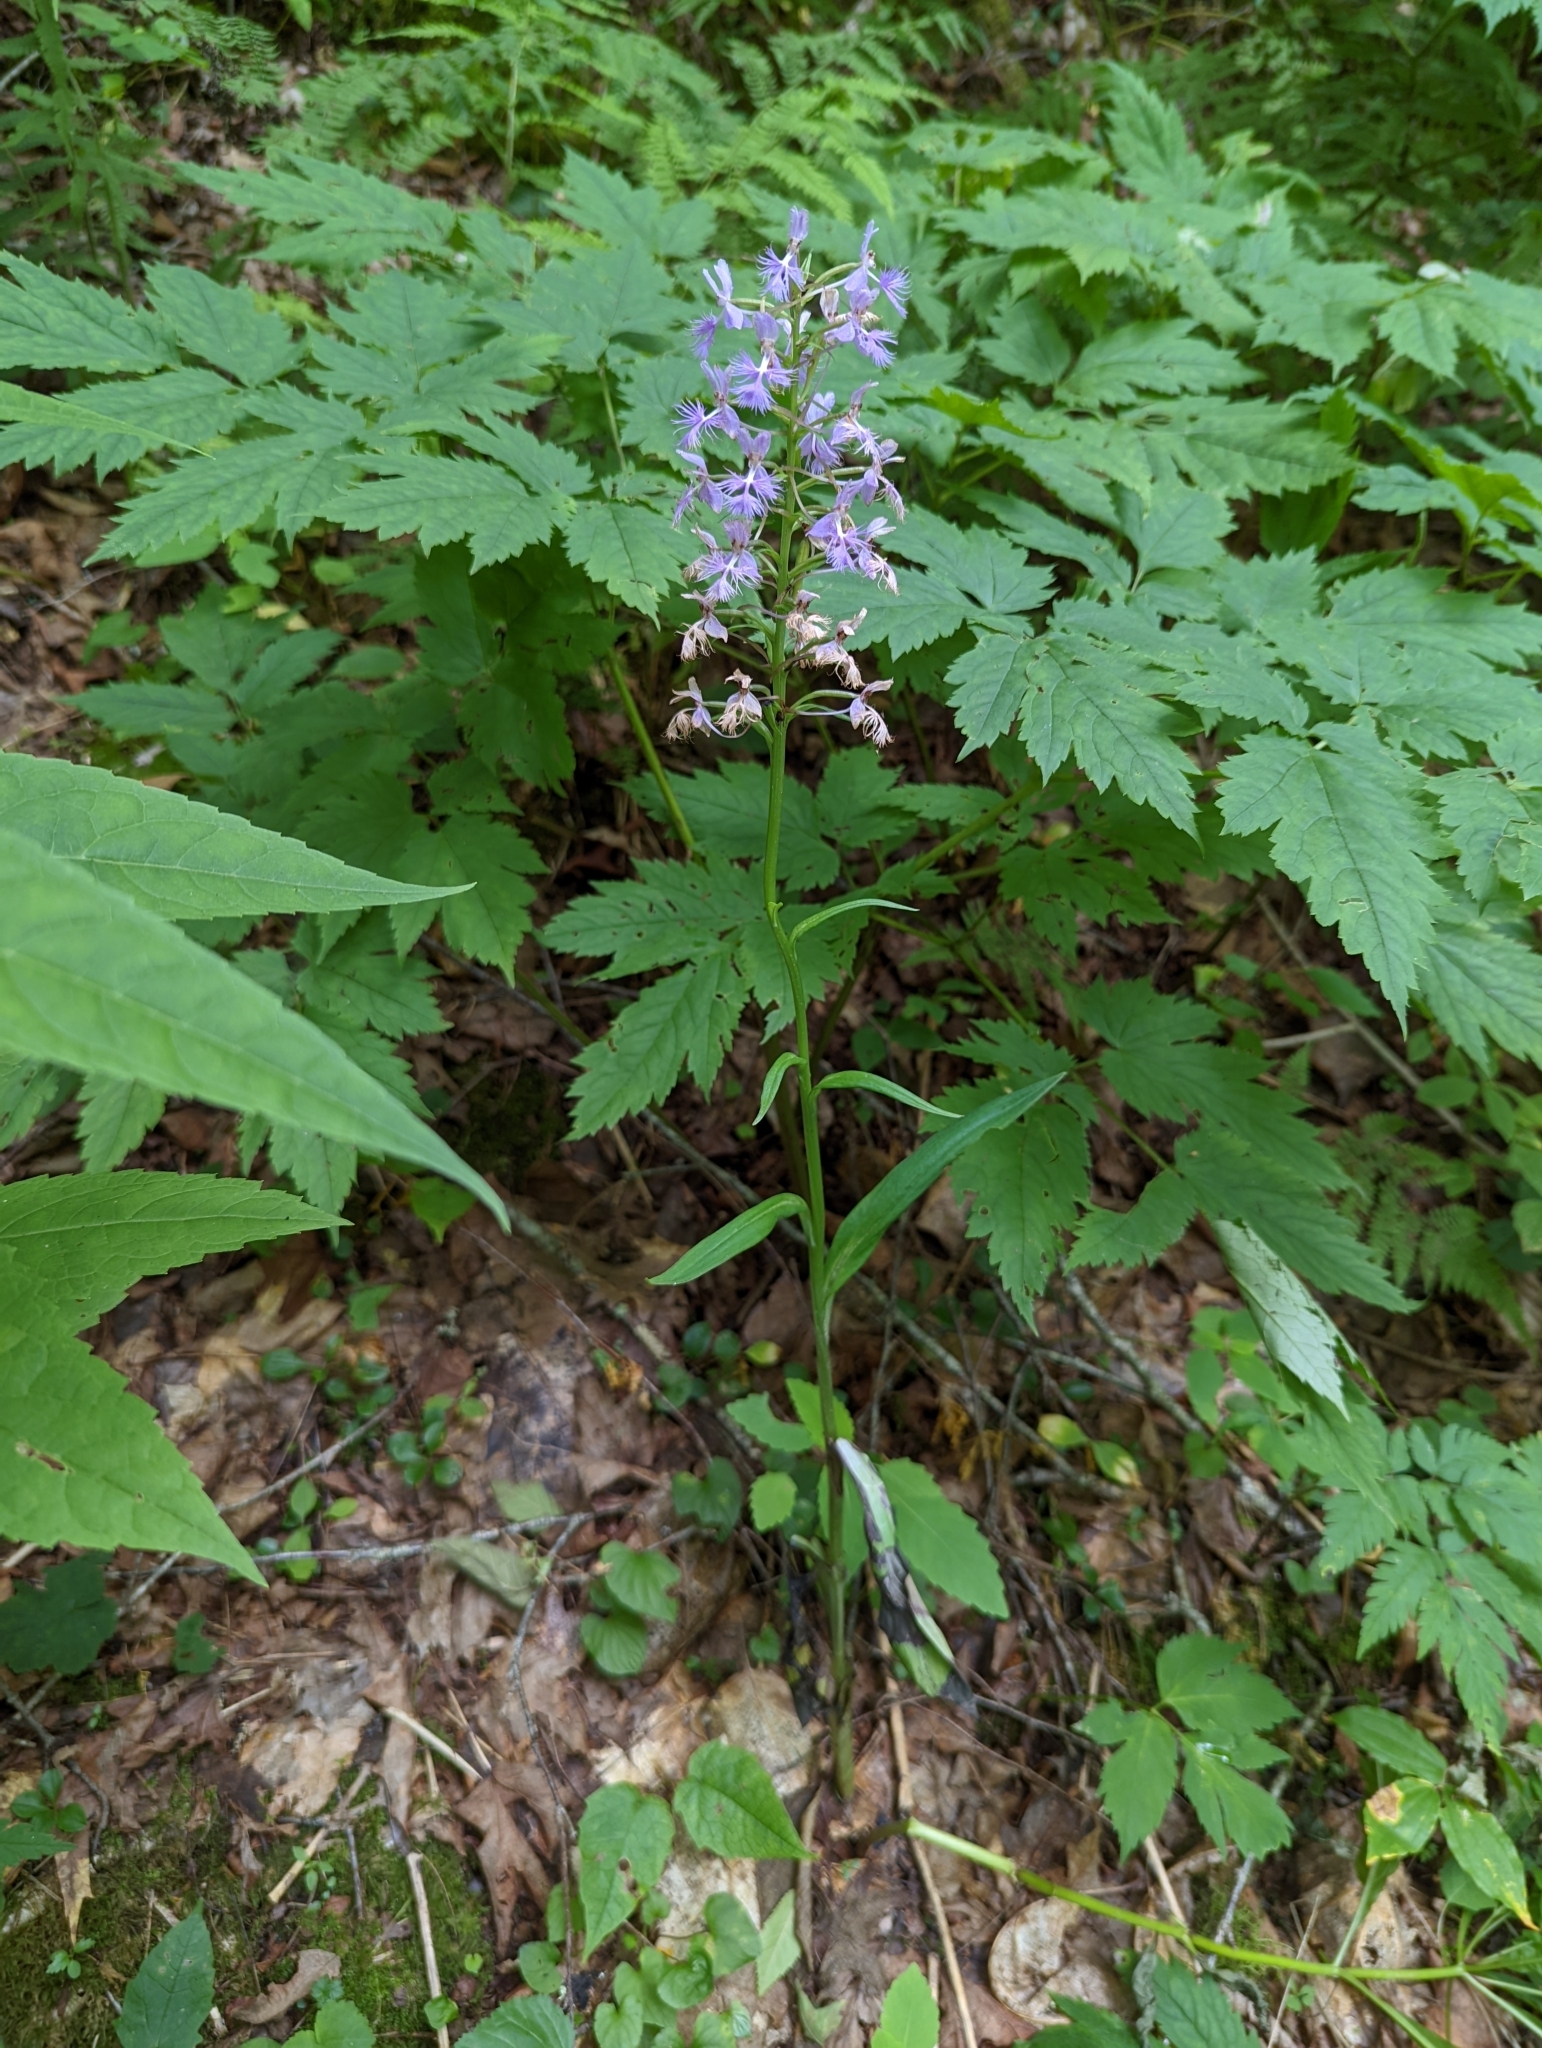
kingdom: Plantae
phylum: Tracheophyta
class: Liliopsida
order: Asparagales
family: Orchidaceae
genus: Platanthera
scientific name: Platanthera shriveri
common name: Shriver's orchid
